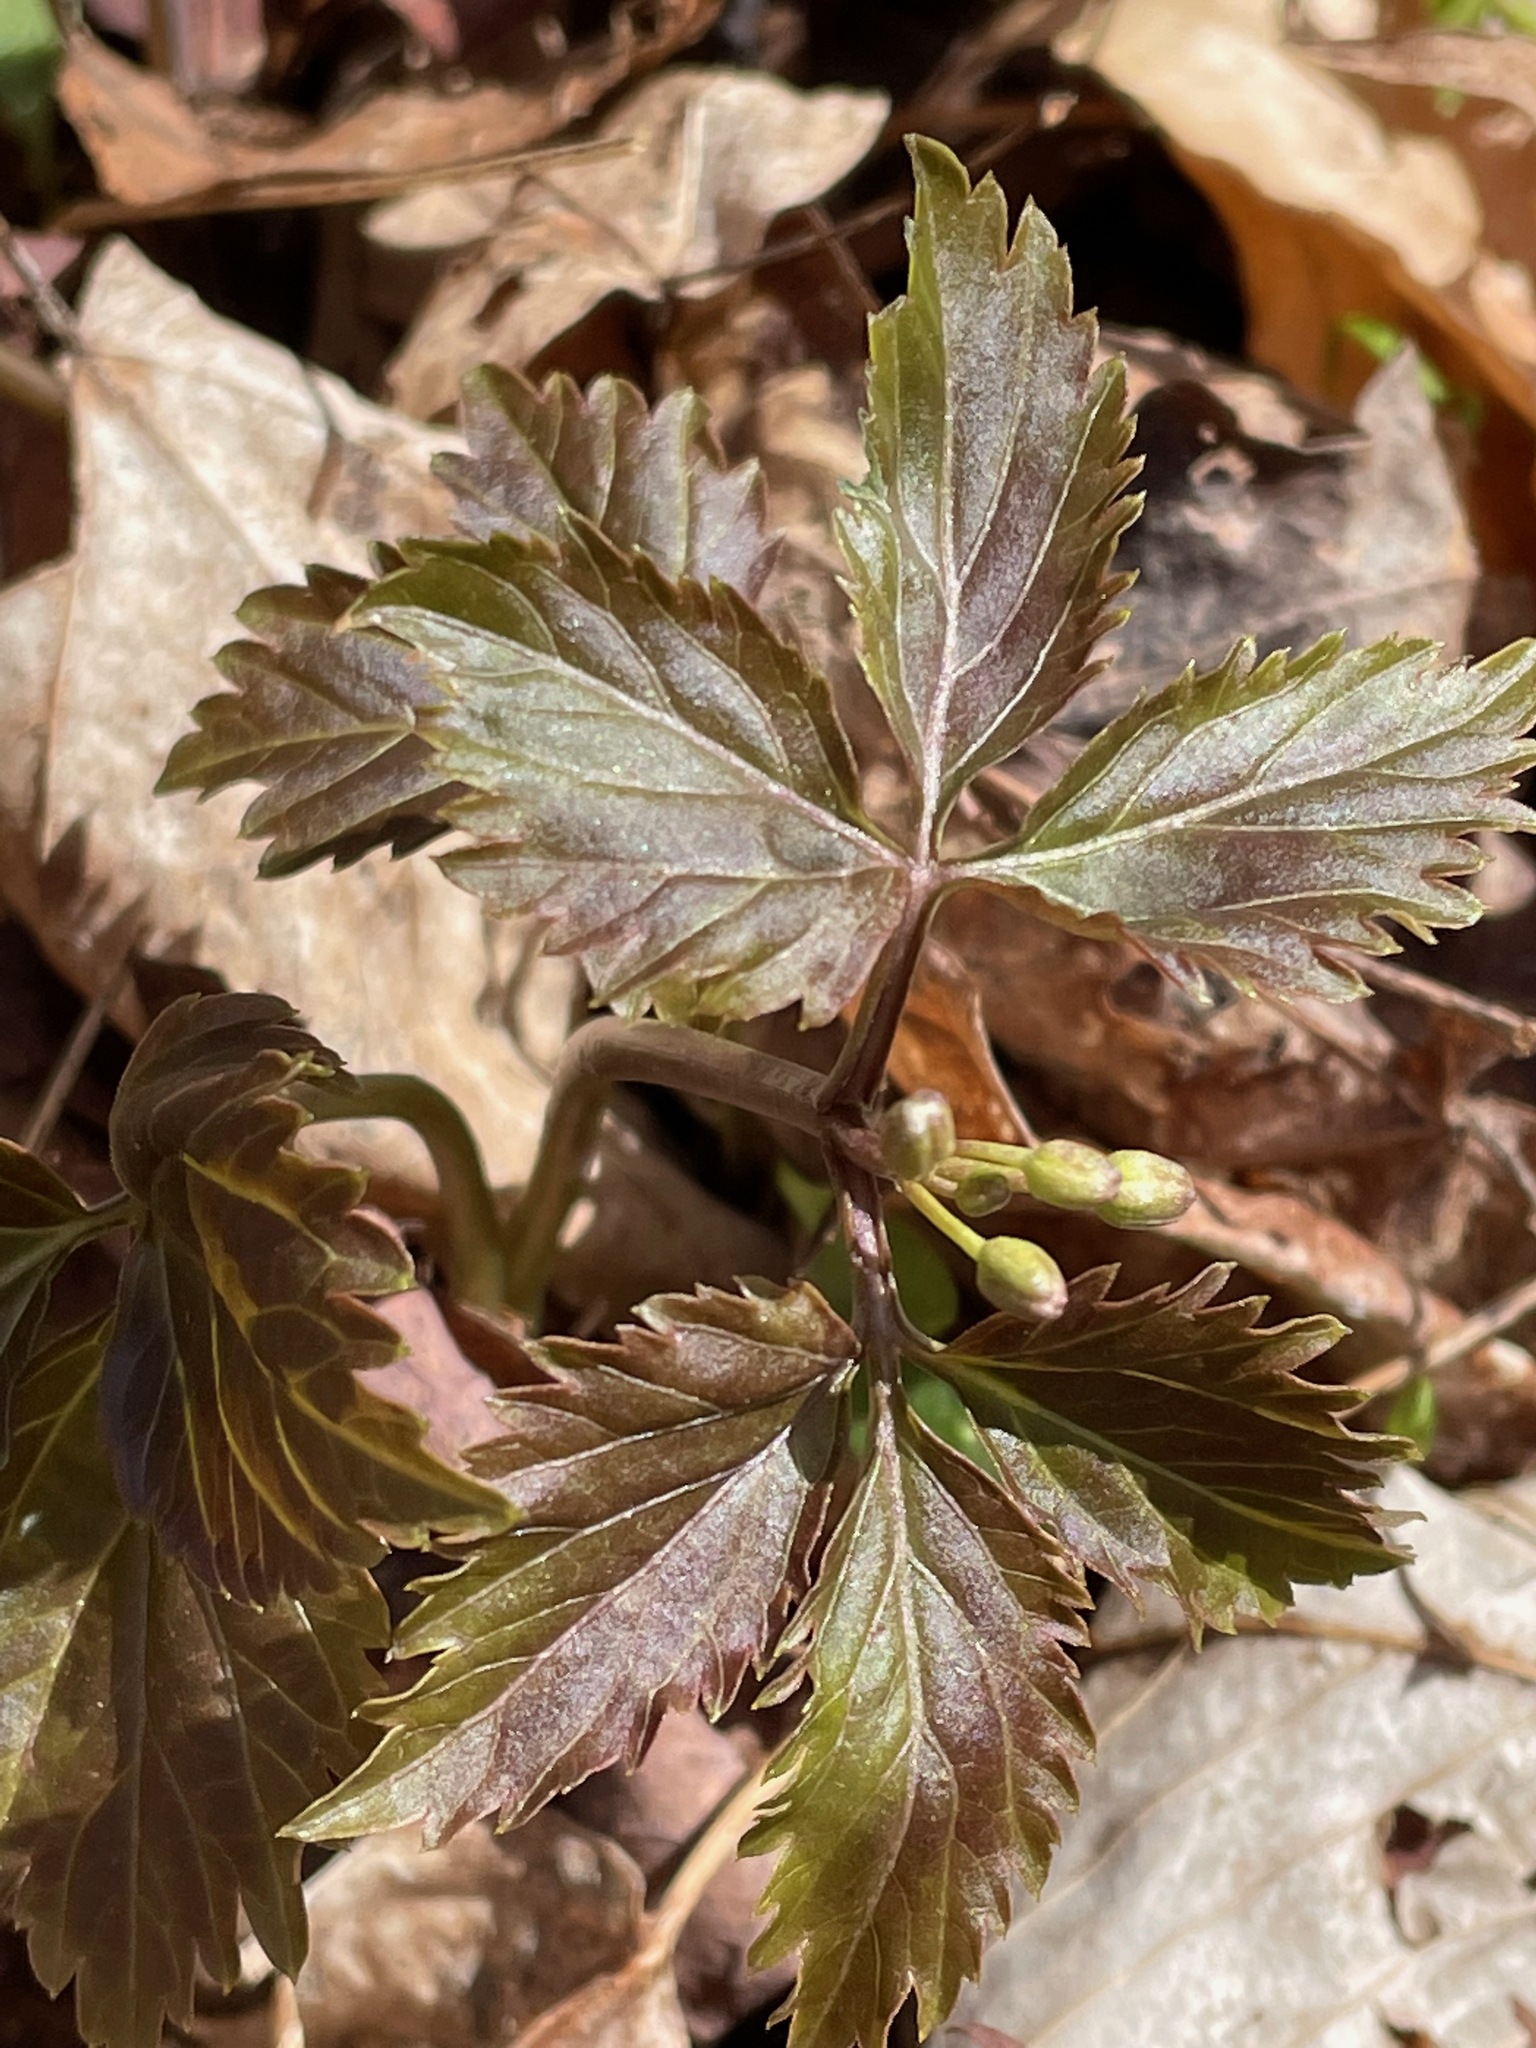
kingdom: Plantae
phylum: Tracheophyta
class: Magnoliopsida
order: Brassicales
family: Brassicaceae
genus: Cardamine
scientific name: Cardamine diphylla
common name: Broad-leaved toothwort
